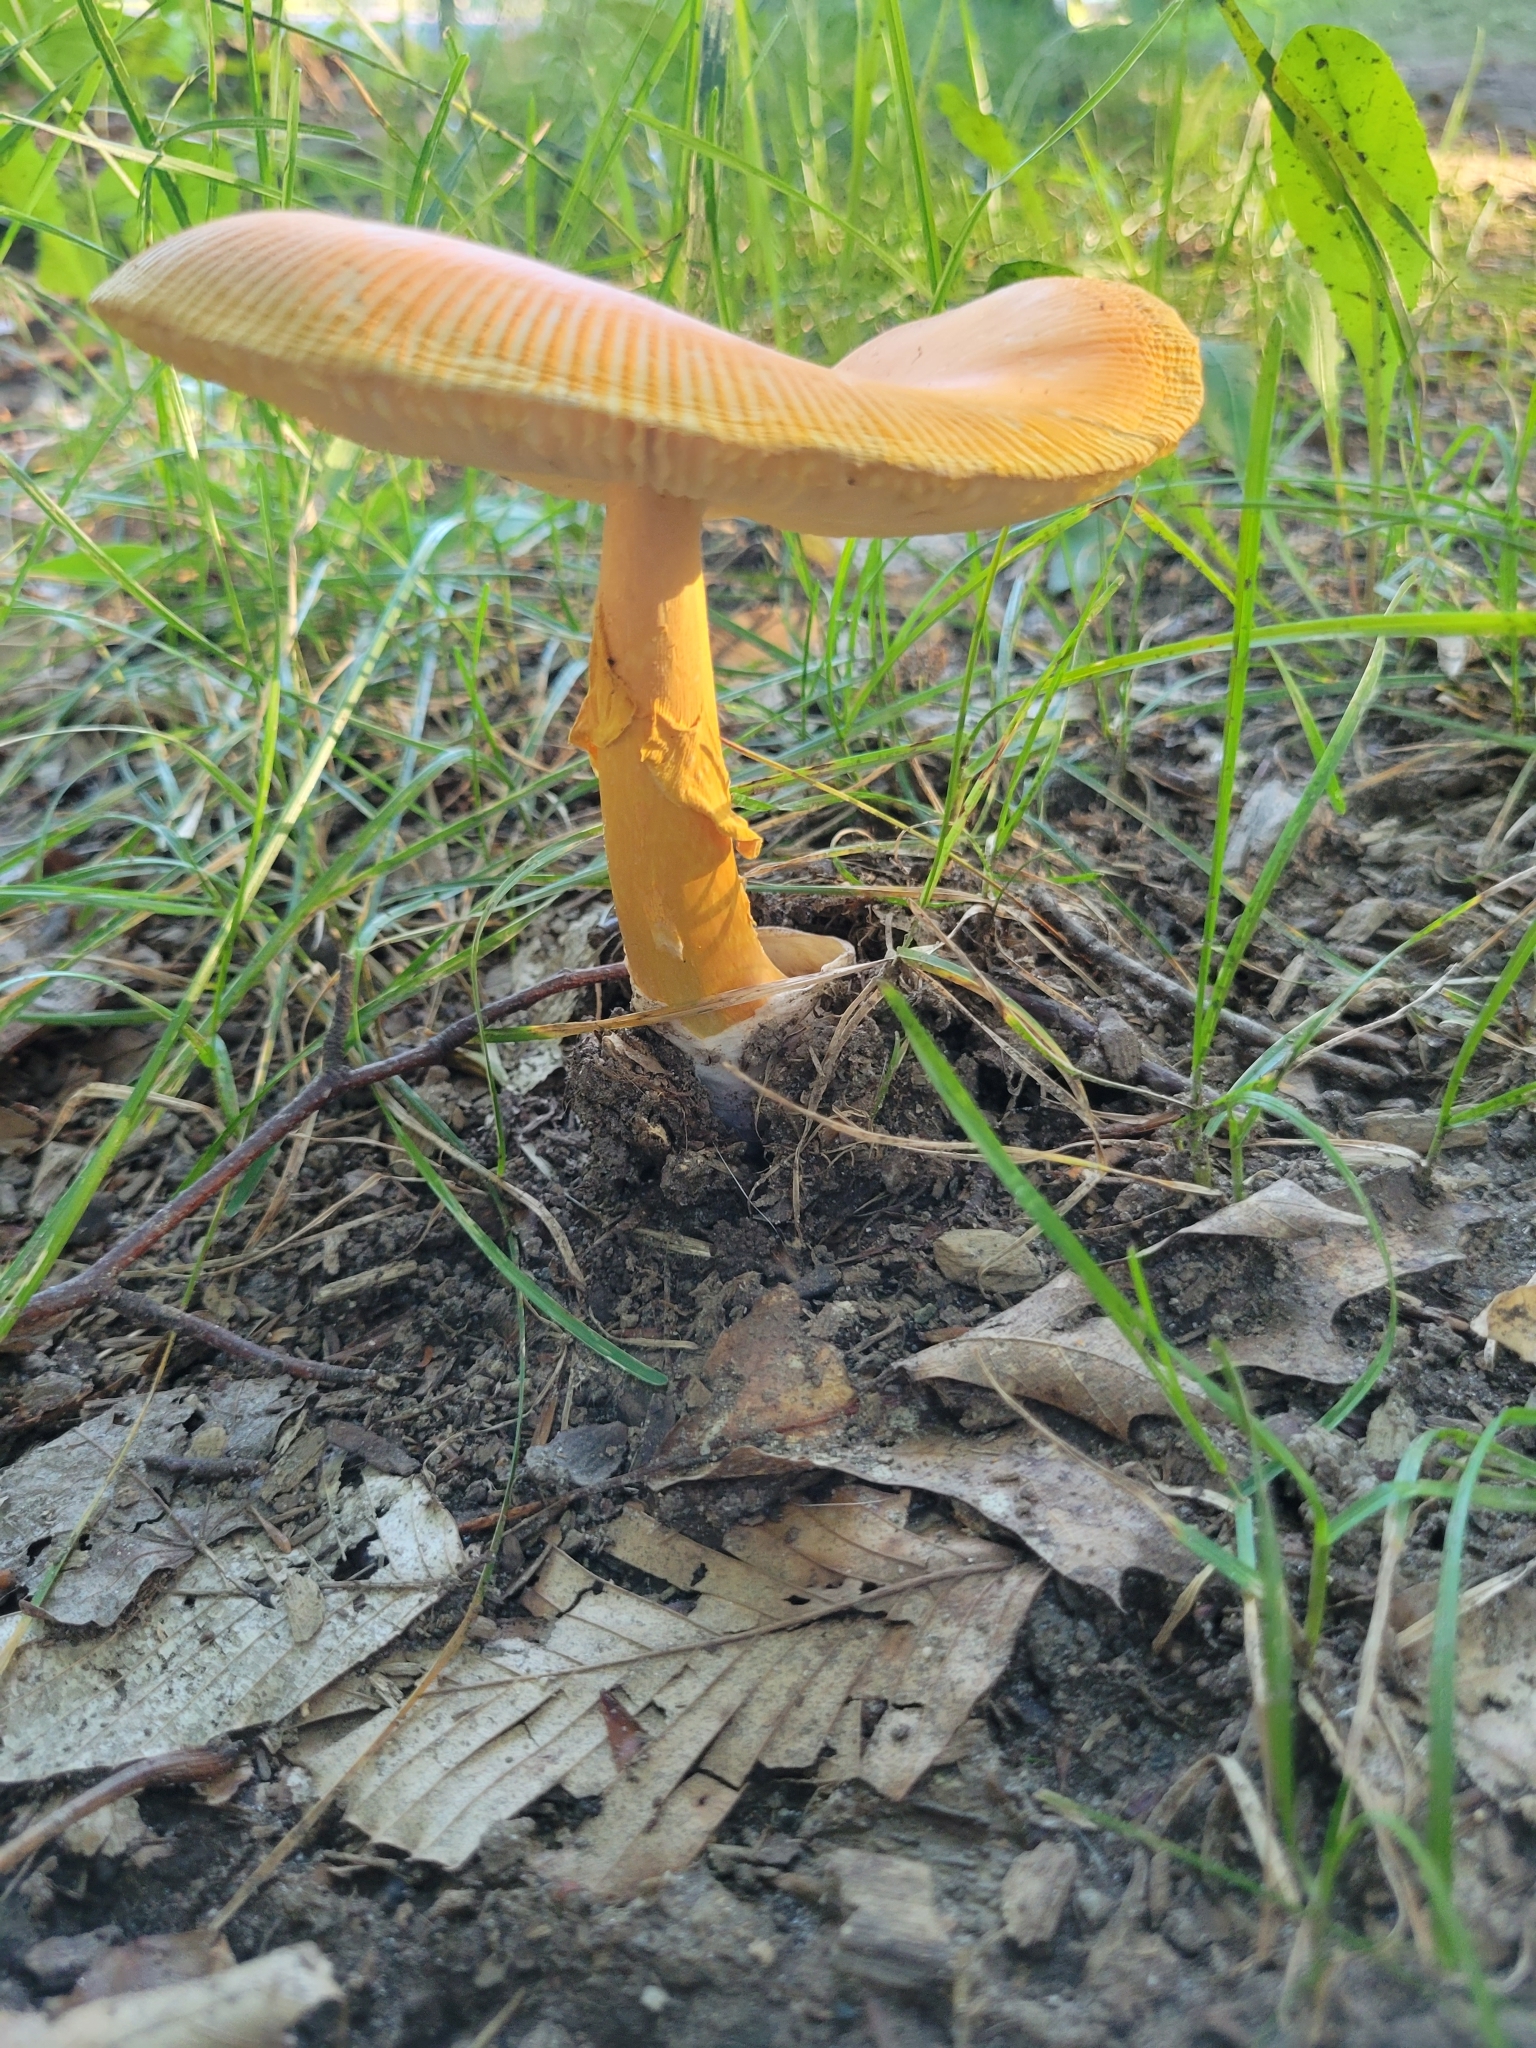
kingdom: Fungi
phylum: Basidiomycota
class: Agaricomycetes
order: Agaricales
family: Amanitaceae
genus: Amanita
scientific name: Amanita jacksonii
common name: Jackson's slender caesar
